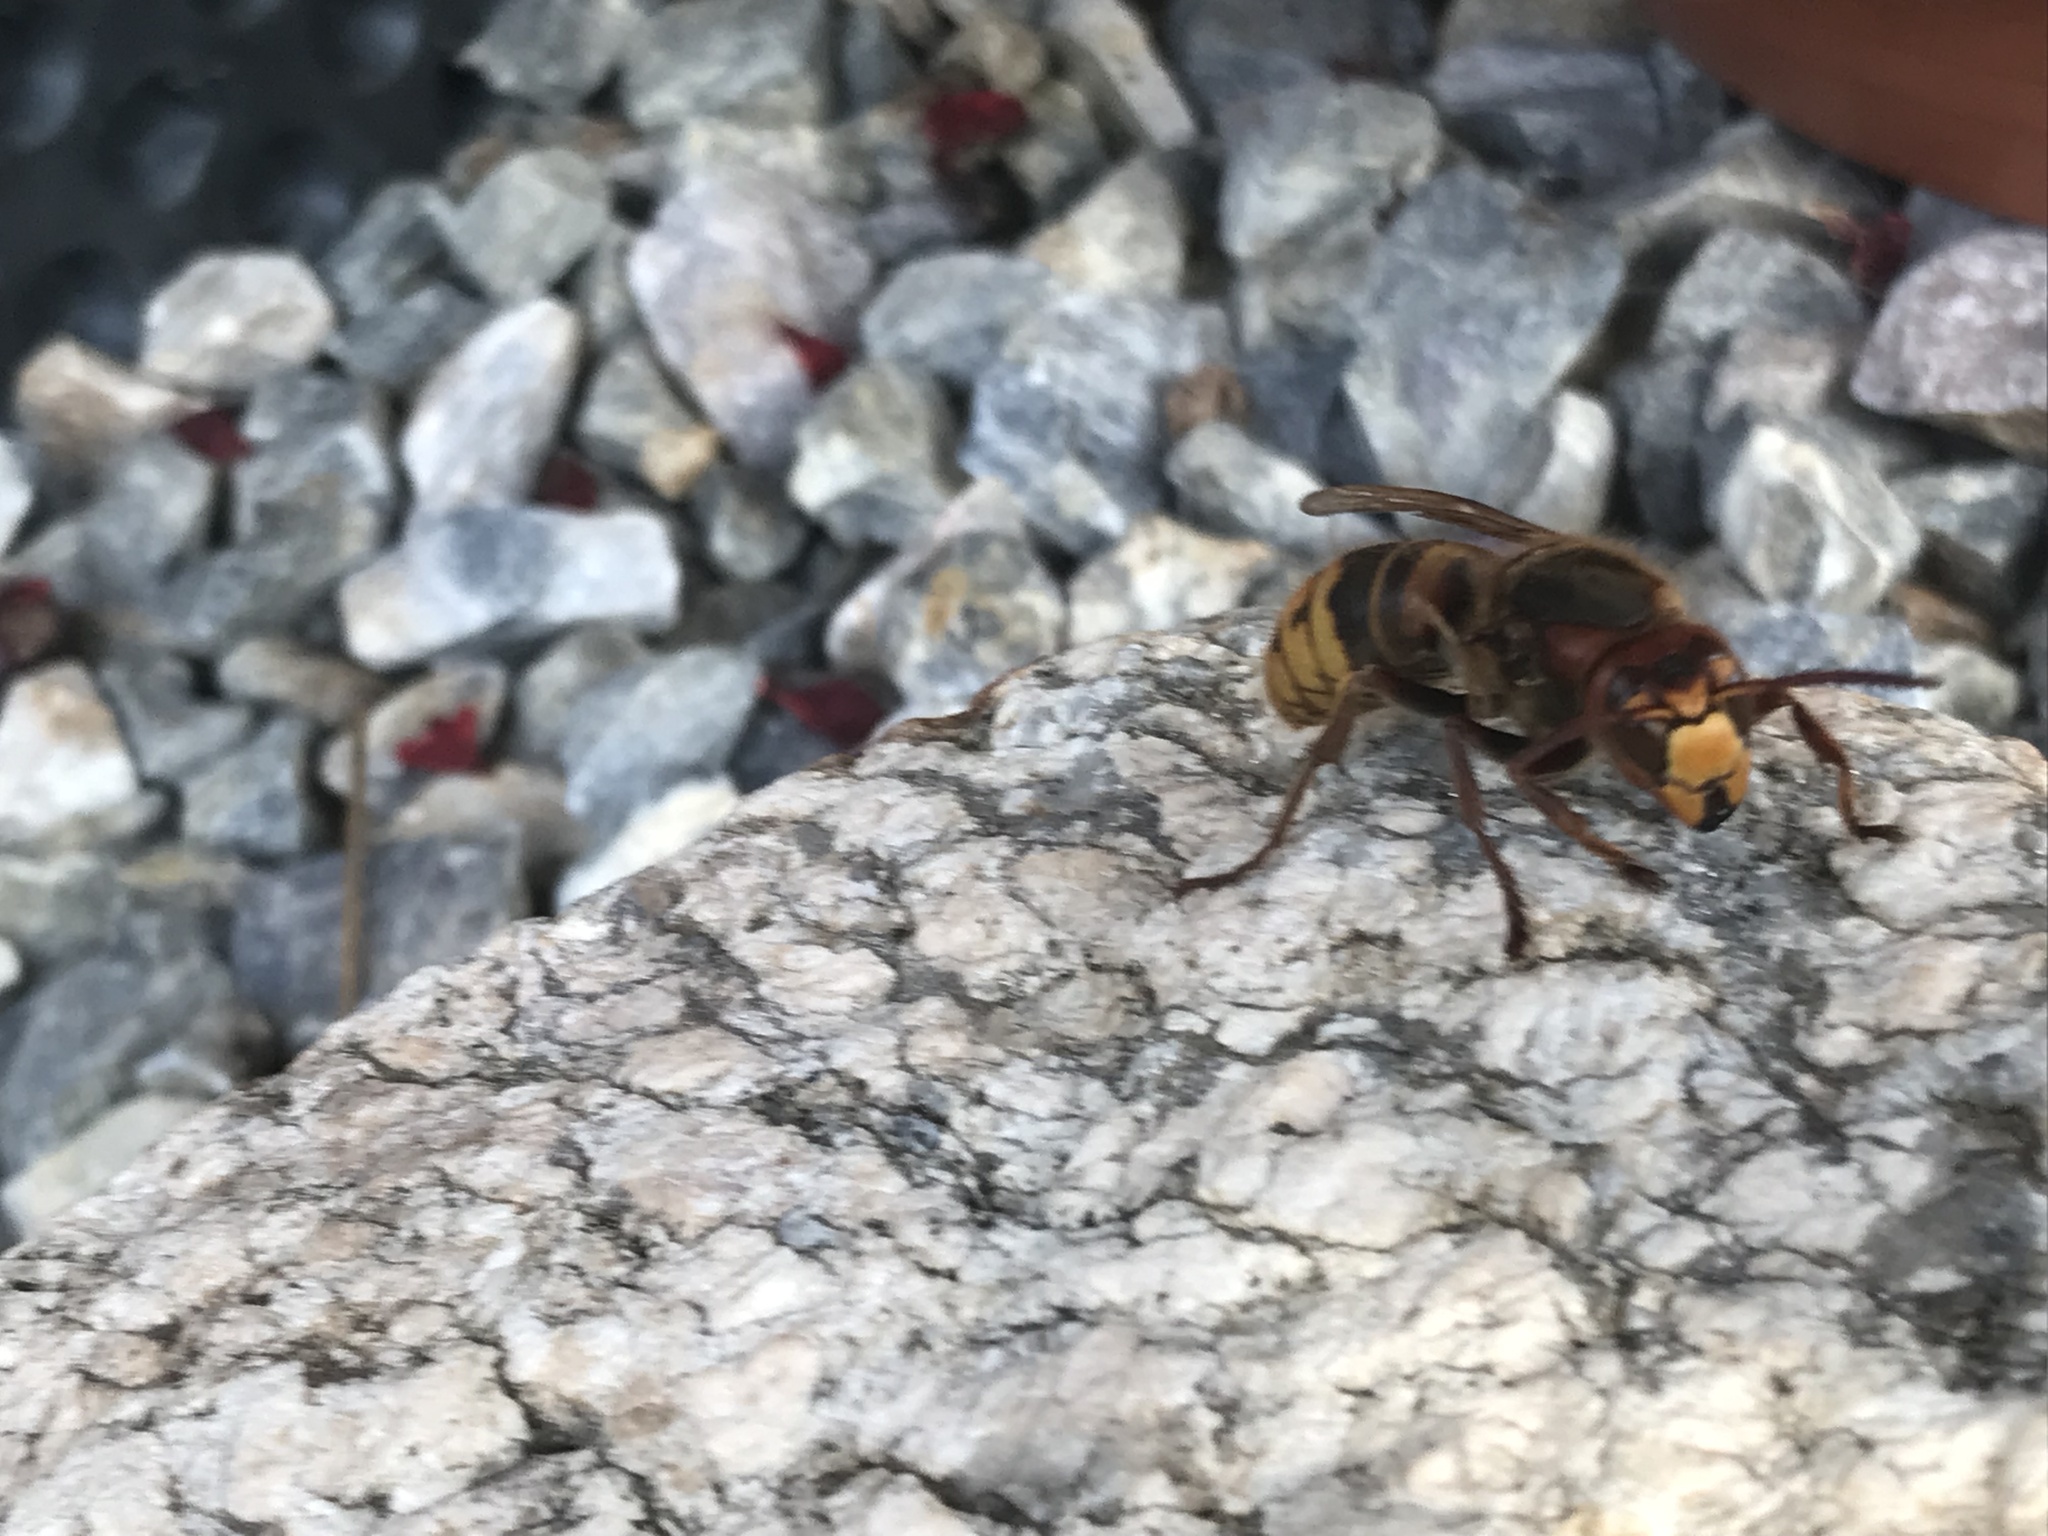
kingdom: Animalia
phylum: Arthropoda
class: Insecta
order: Hymenoptera
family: Vespidae
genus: Vespa
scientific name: Vespa crabro
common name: Hornet
